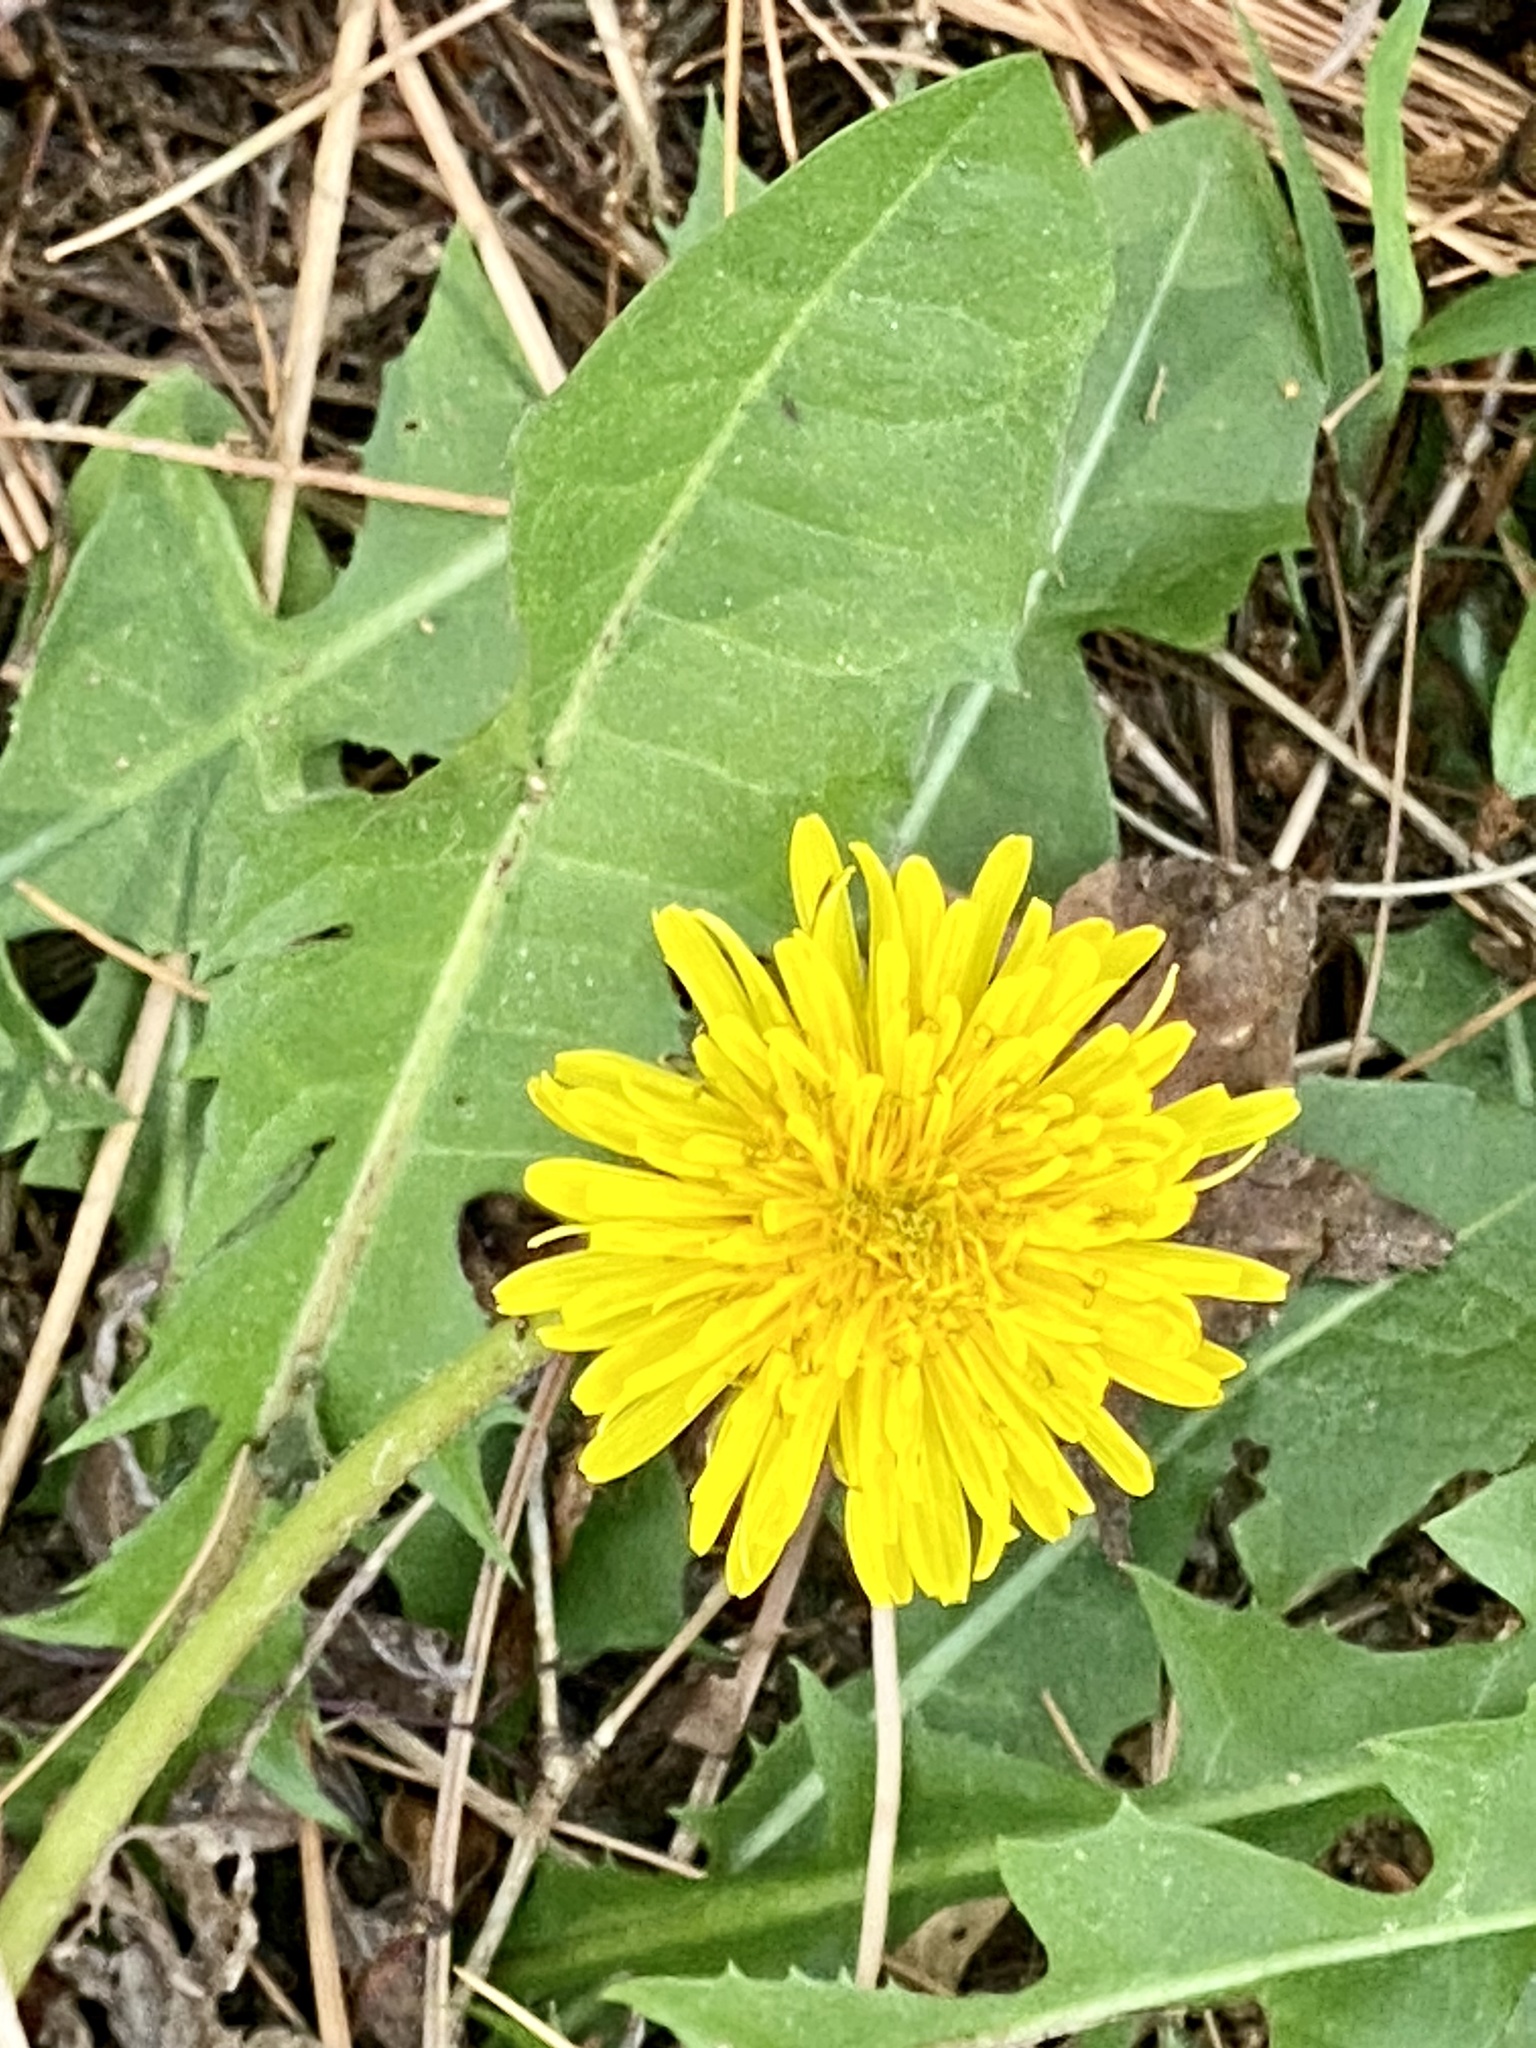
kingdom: Plantae
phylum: Tracheophyta
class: Magnoliopsida
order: Asterales
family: Asteraceae
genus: Taraxacum
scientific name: Taraxacum officinale
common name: Common dandelion
